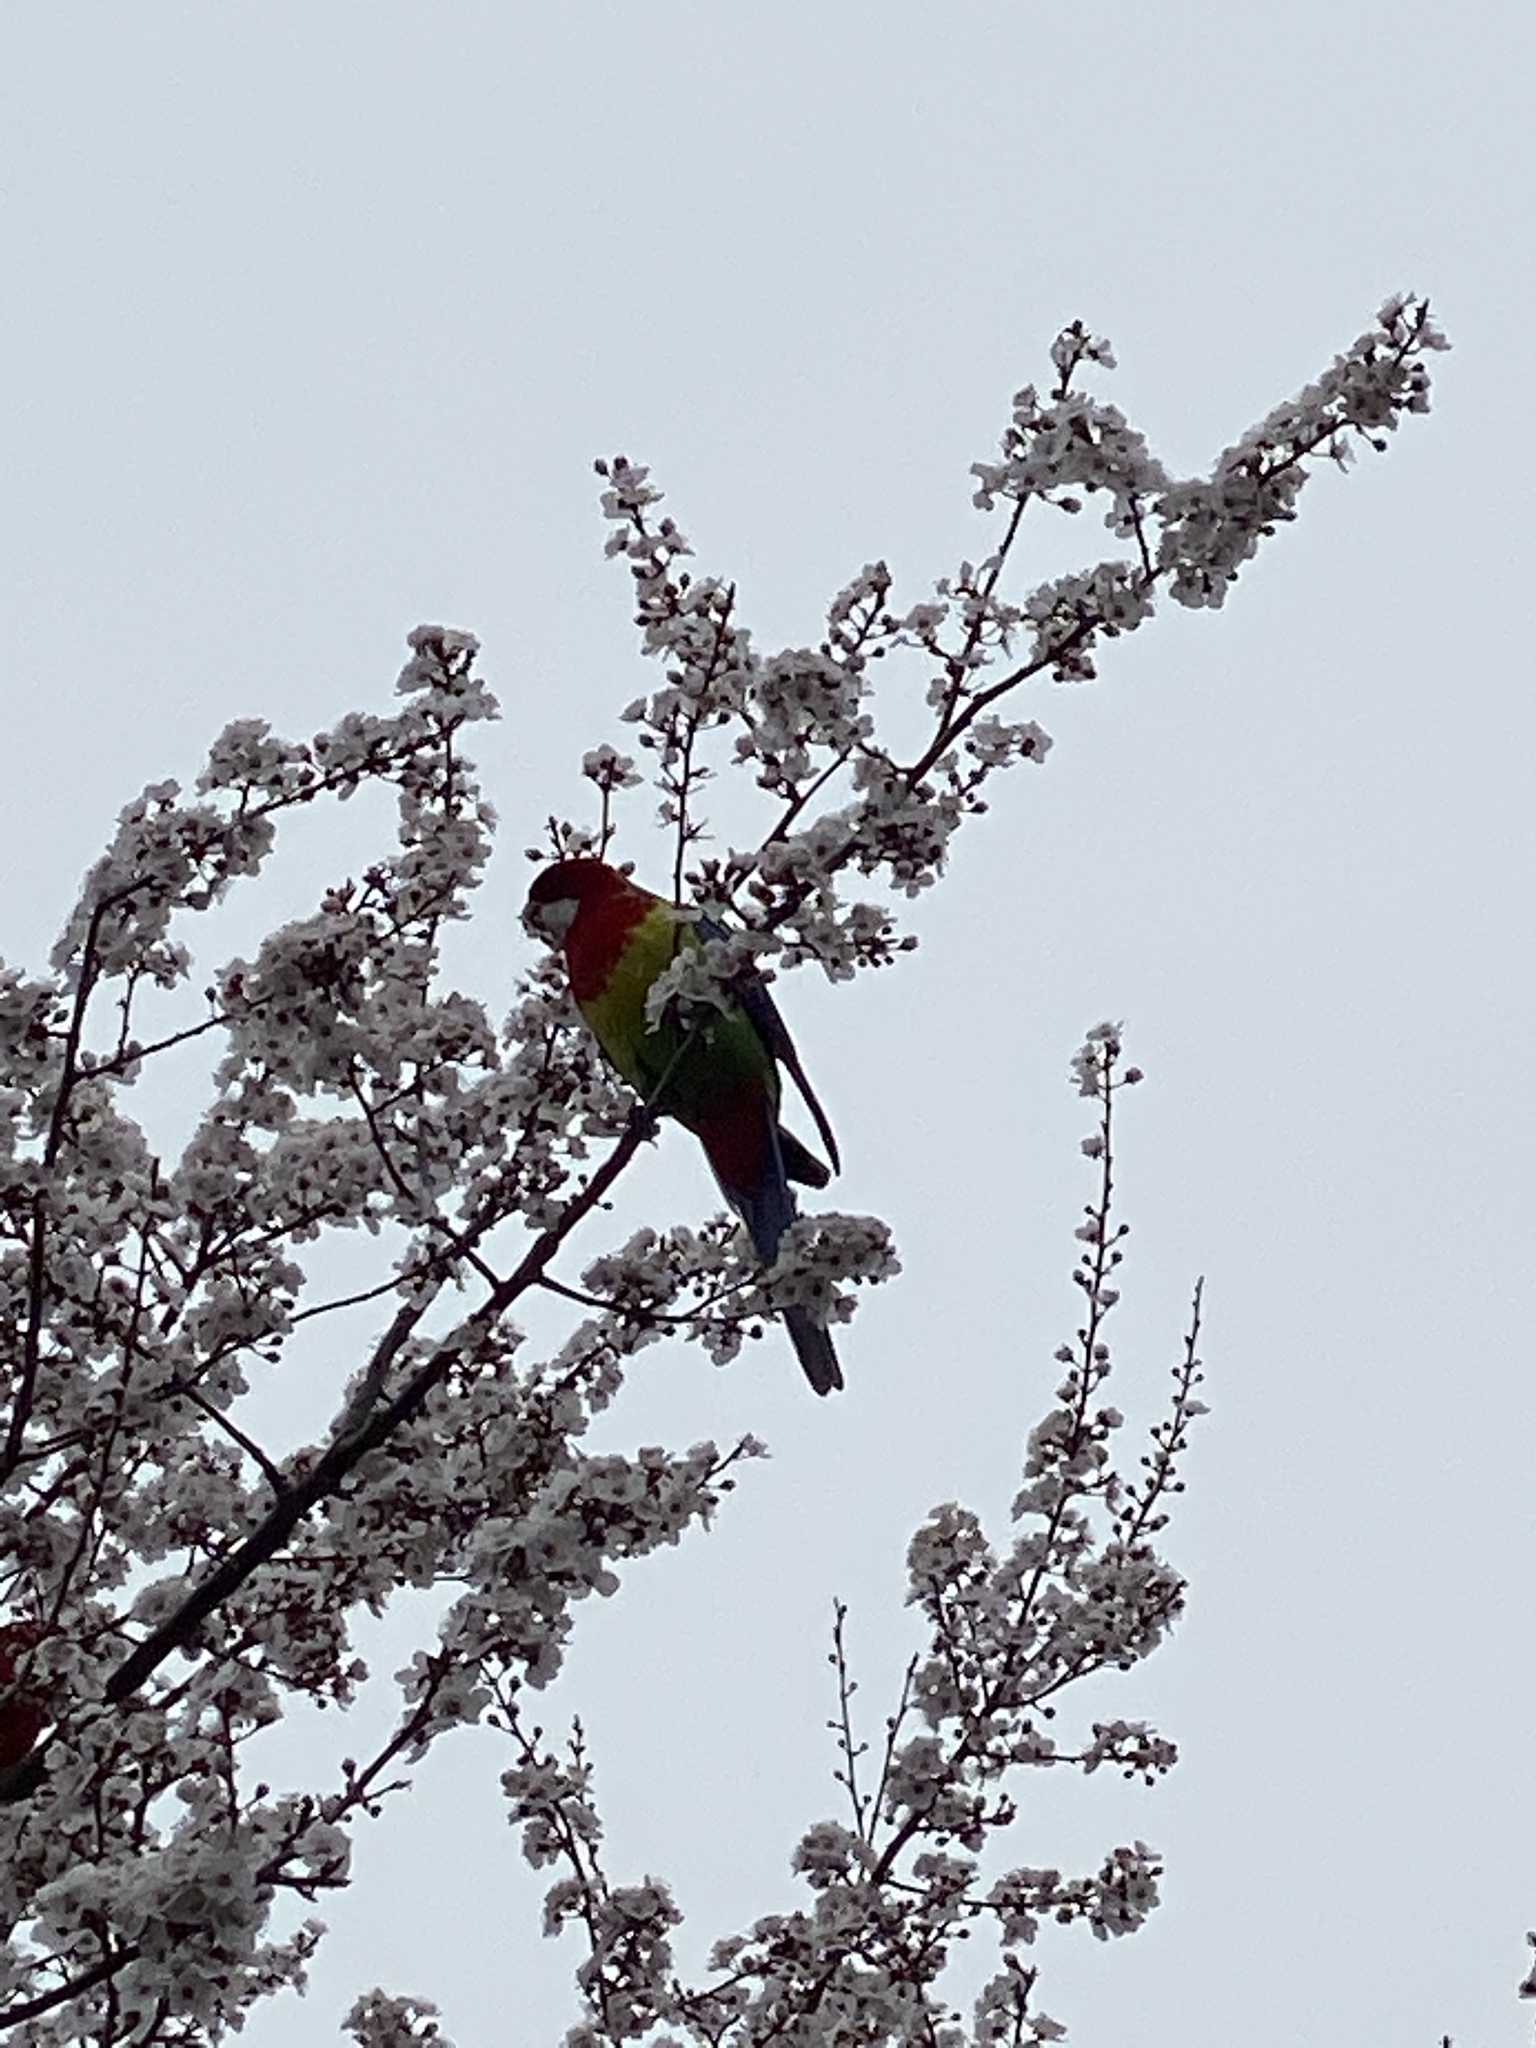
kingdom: Animalia
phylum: Chordata
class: Aves
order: Psittaciformes
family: Psittacidae
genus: Platycercus
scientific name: Platycercus eximius
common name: Eastern rosella
